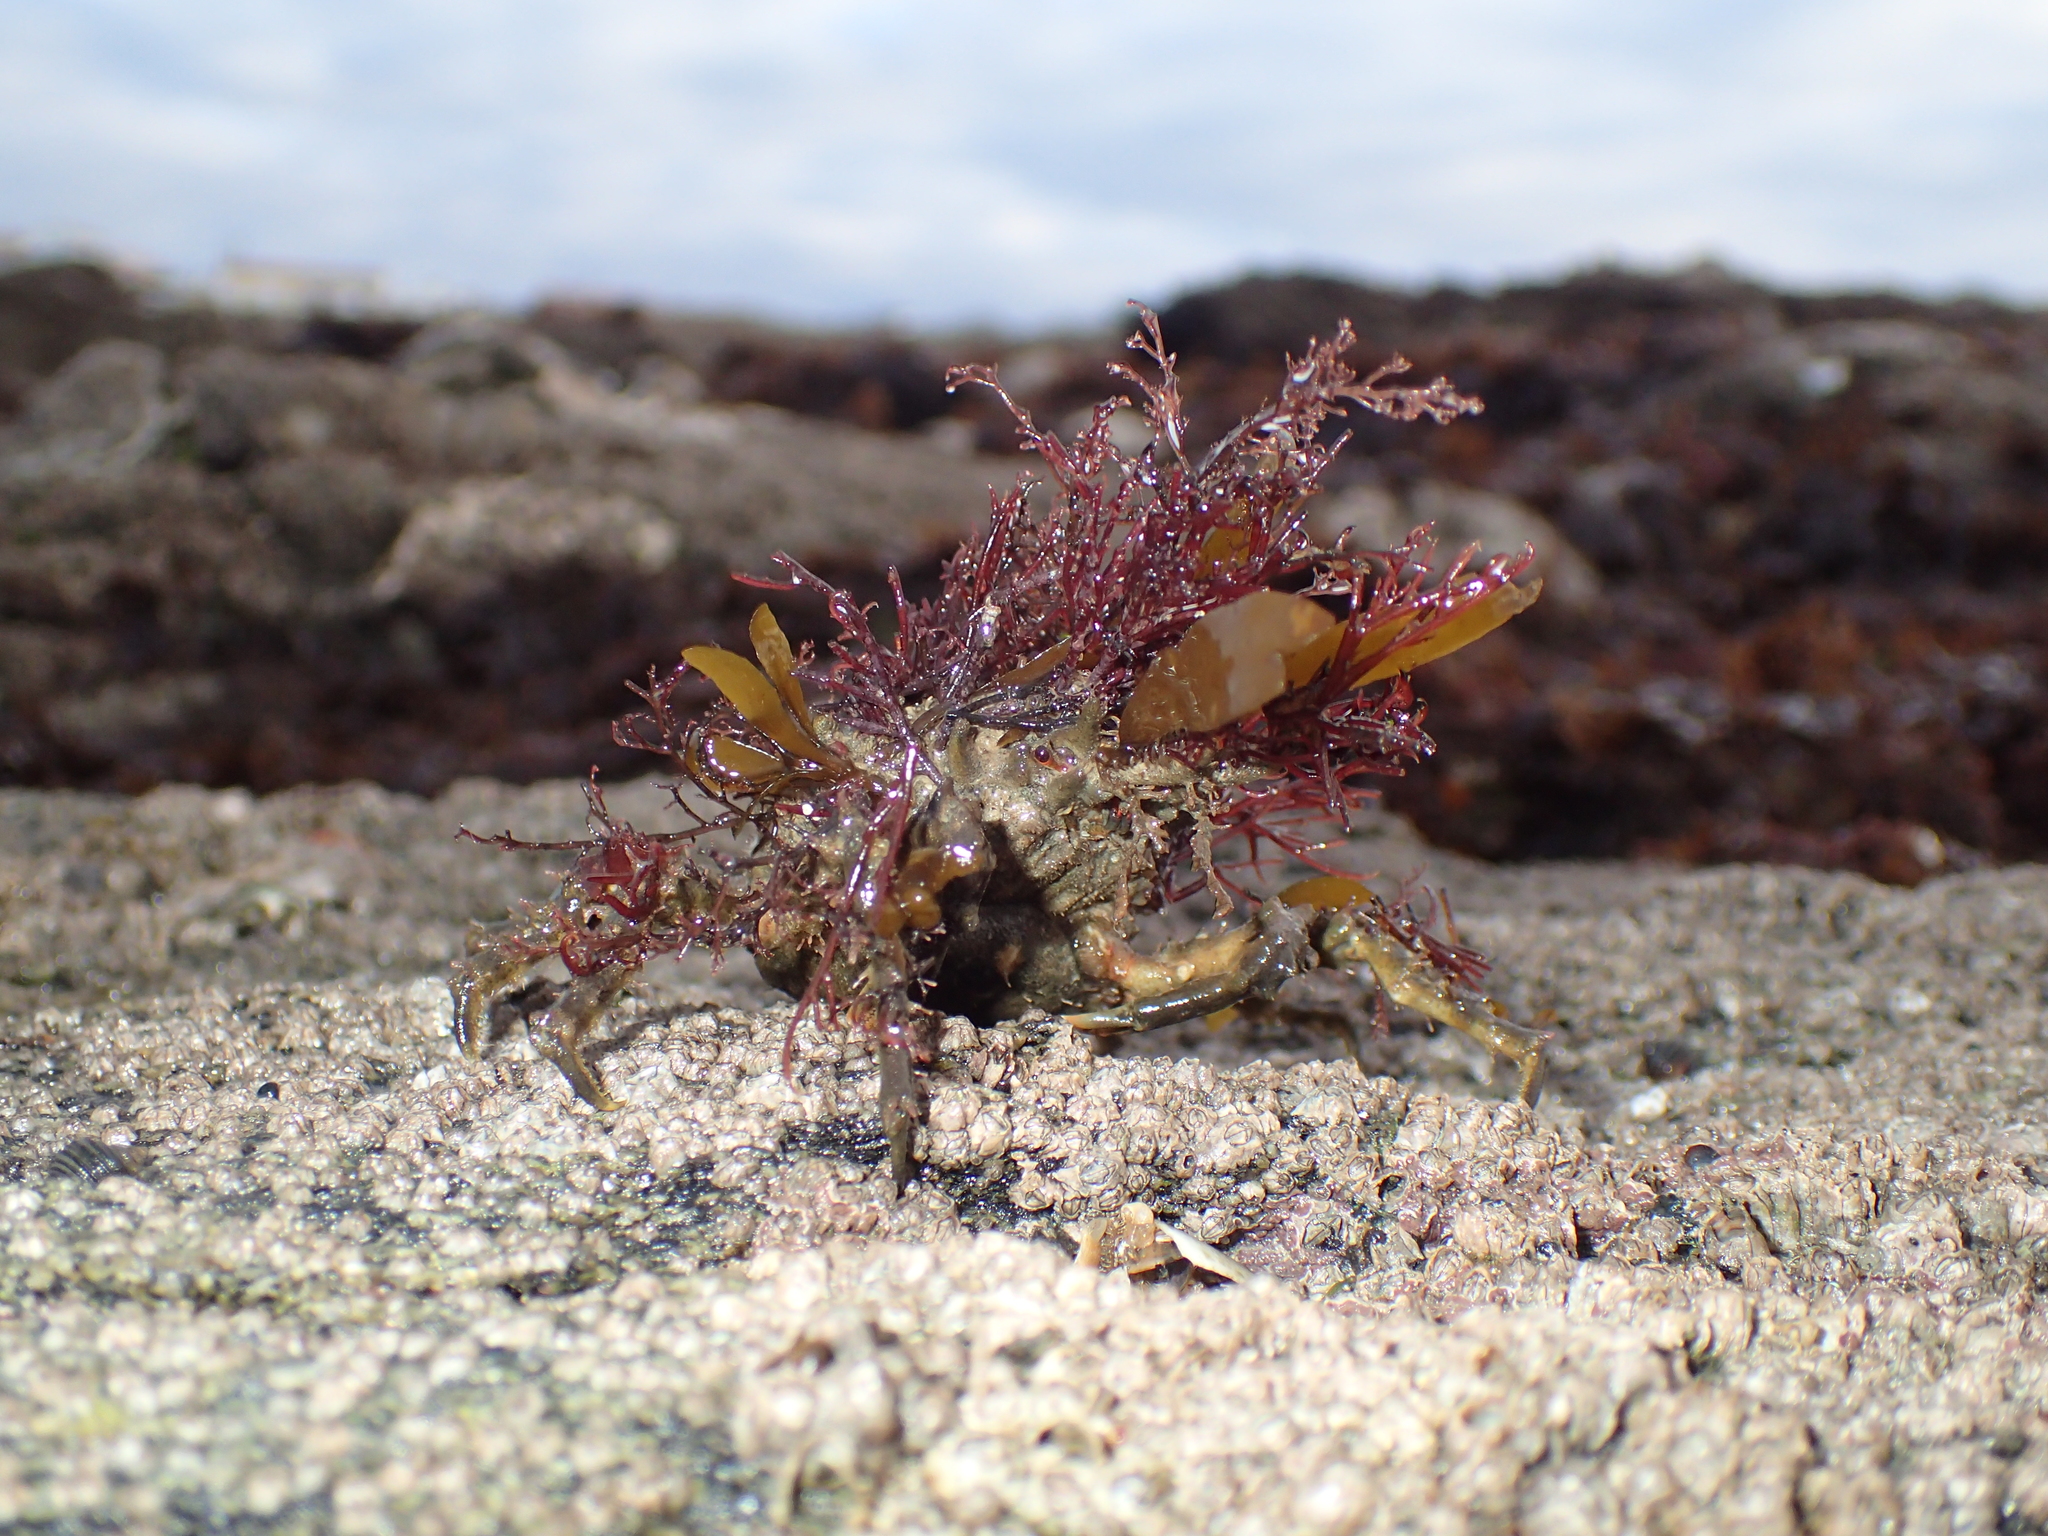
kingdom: Animalia
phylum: Arthropoda
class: Malacostraca
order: Decapoda
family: Epialtidae
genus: Pisa
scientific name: Pisa tetraodon
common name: Four-horned spider crab
